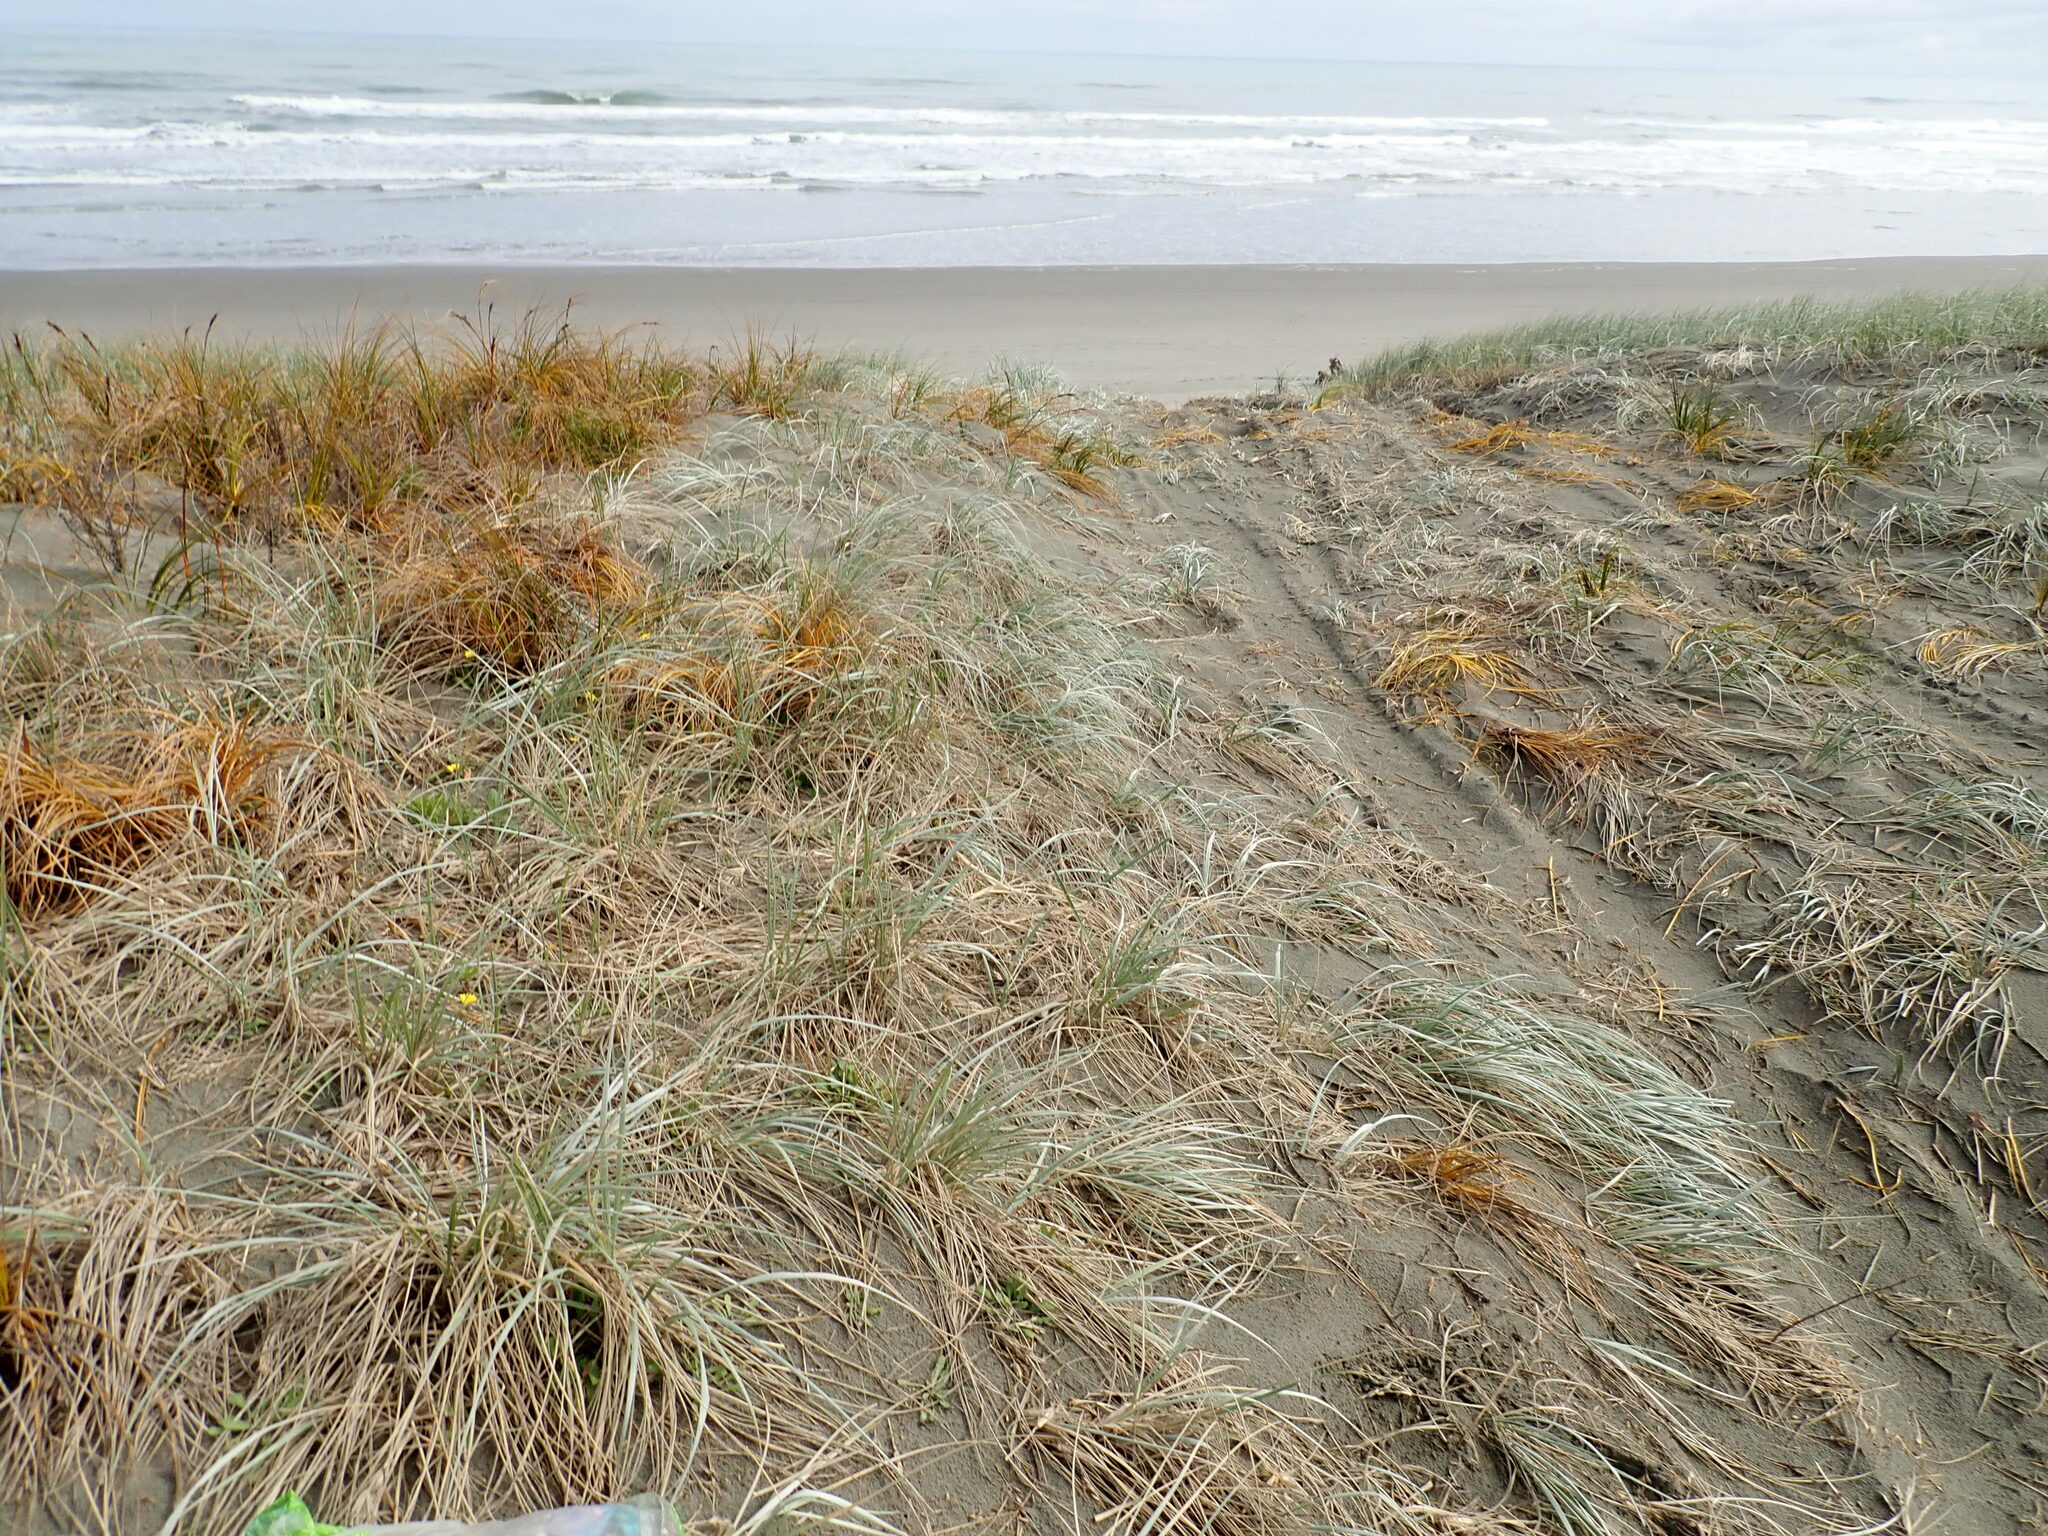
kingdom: Plantae
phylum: Tracheophyta
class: Liliopsida
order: Poales
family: Cyperaceae
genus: Ficinia
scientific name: Ficinia spiralis
